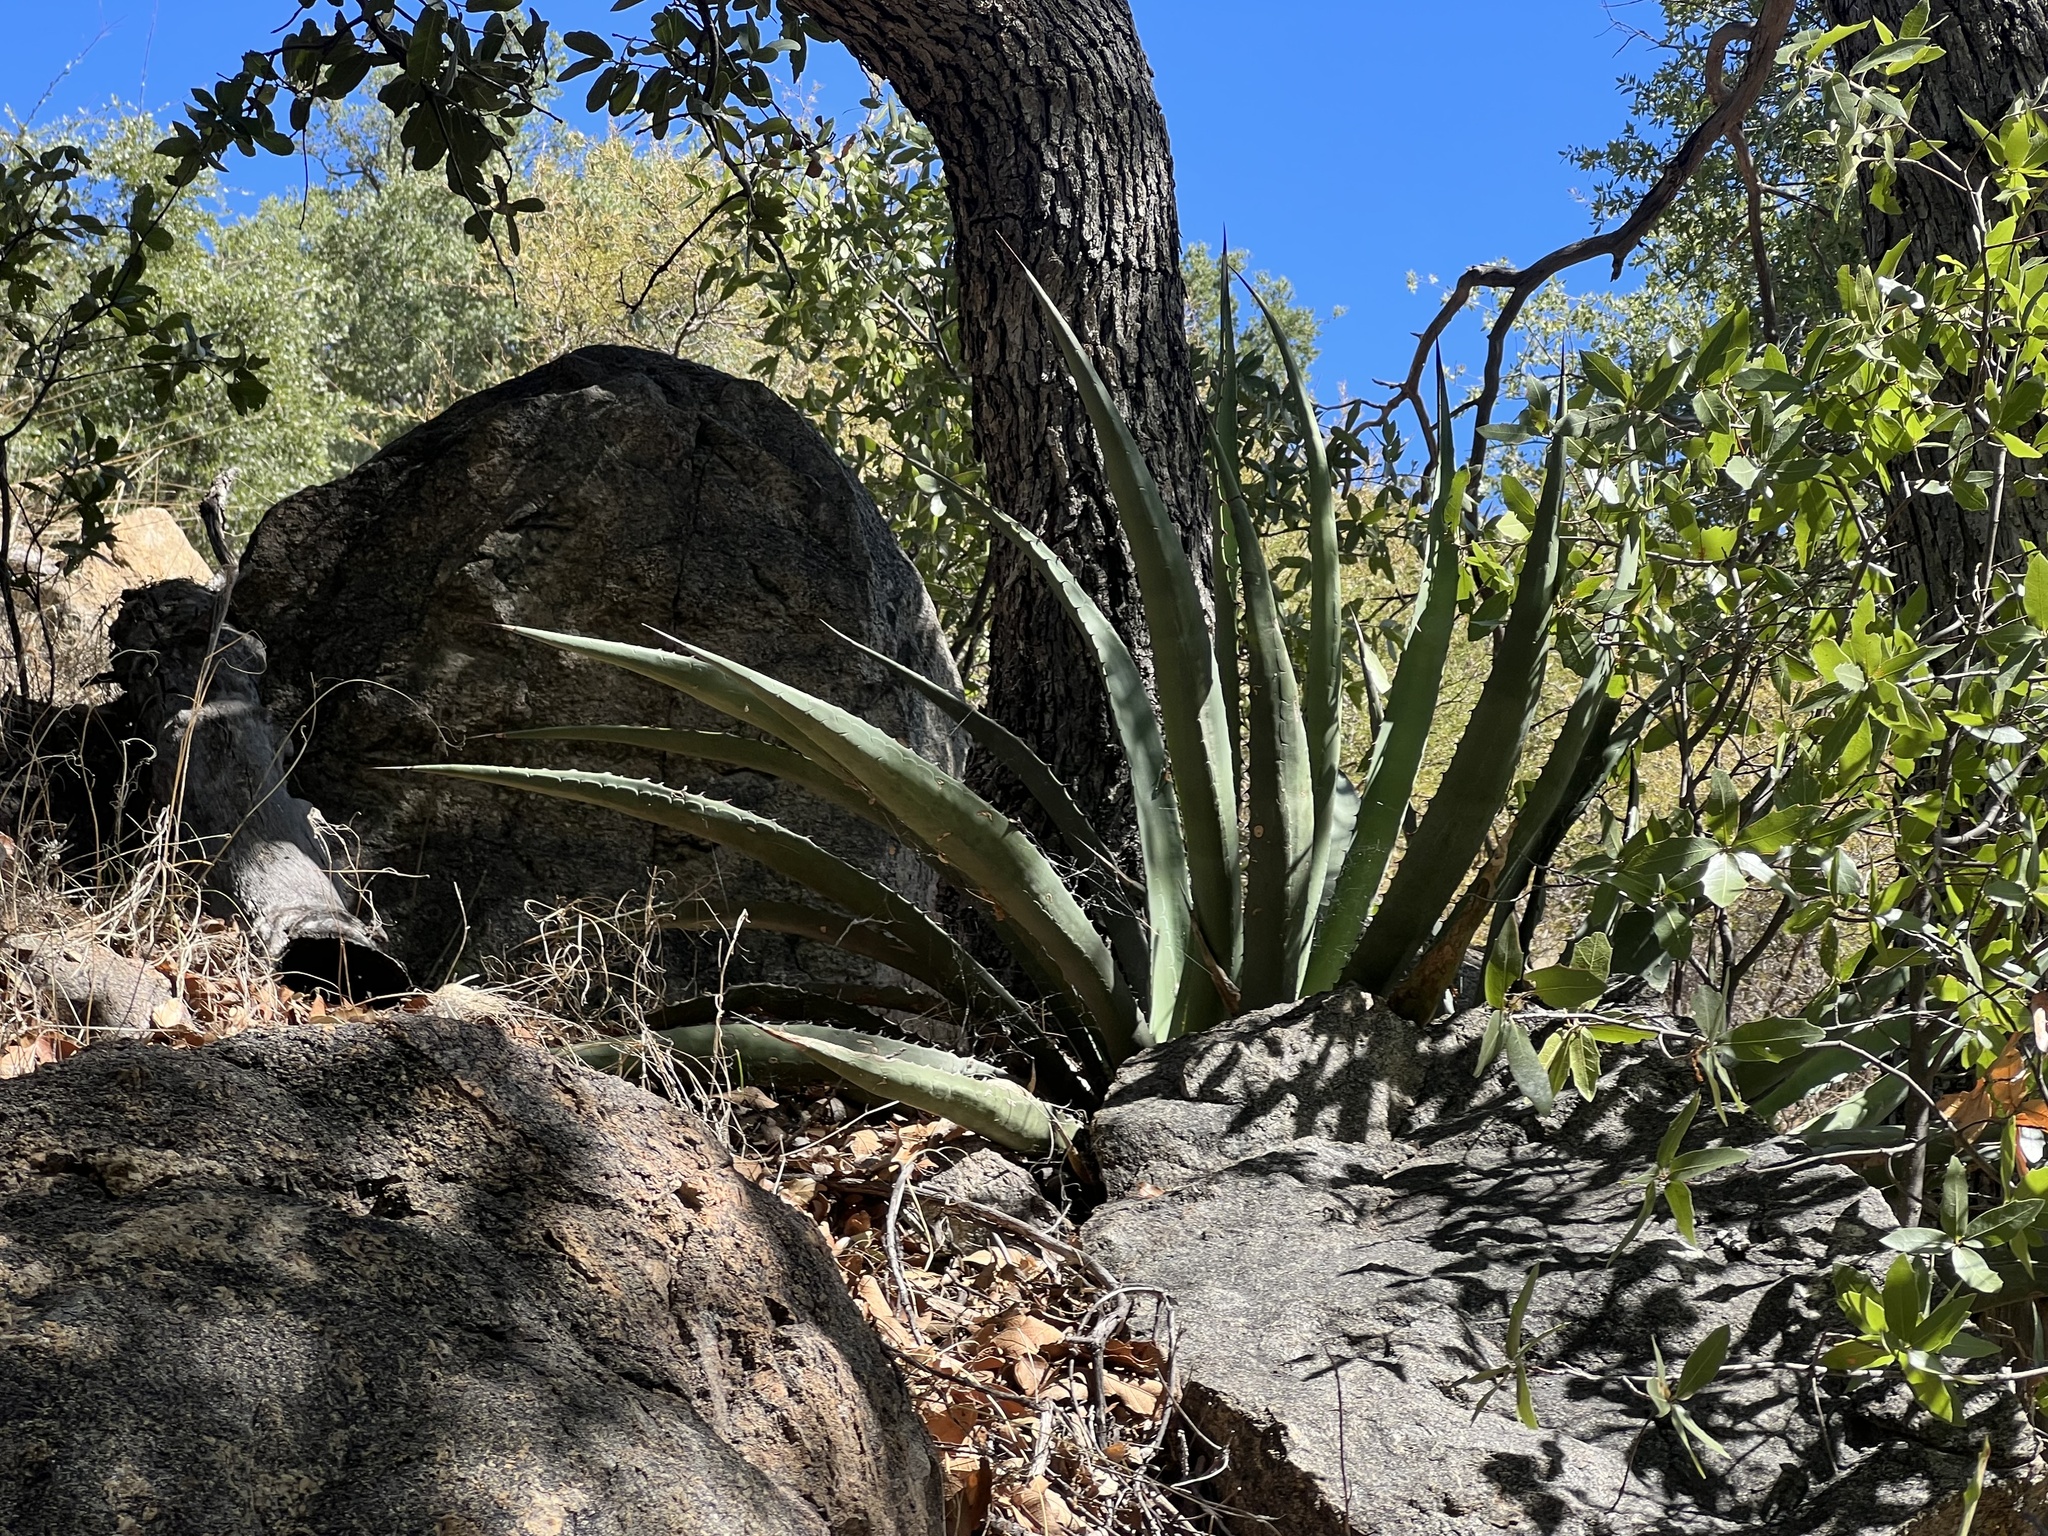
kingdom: Plantae
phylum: Tracheophyta
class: Liliopsida
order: Asparagales
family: Asparagaceae
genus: Agave
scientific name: Agave palmeri
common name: Palmer agave
